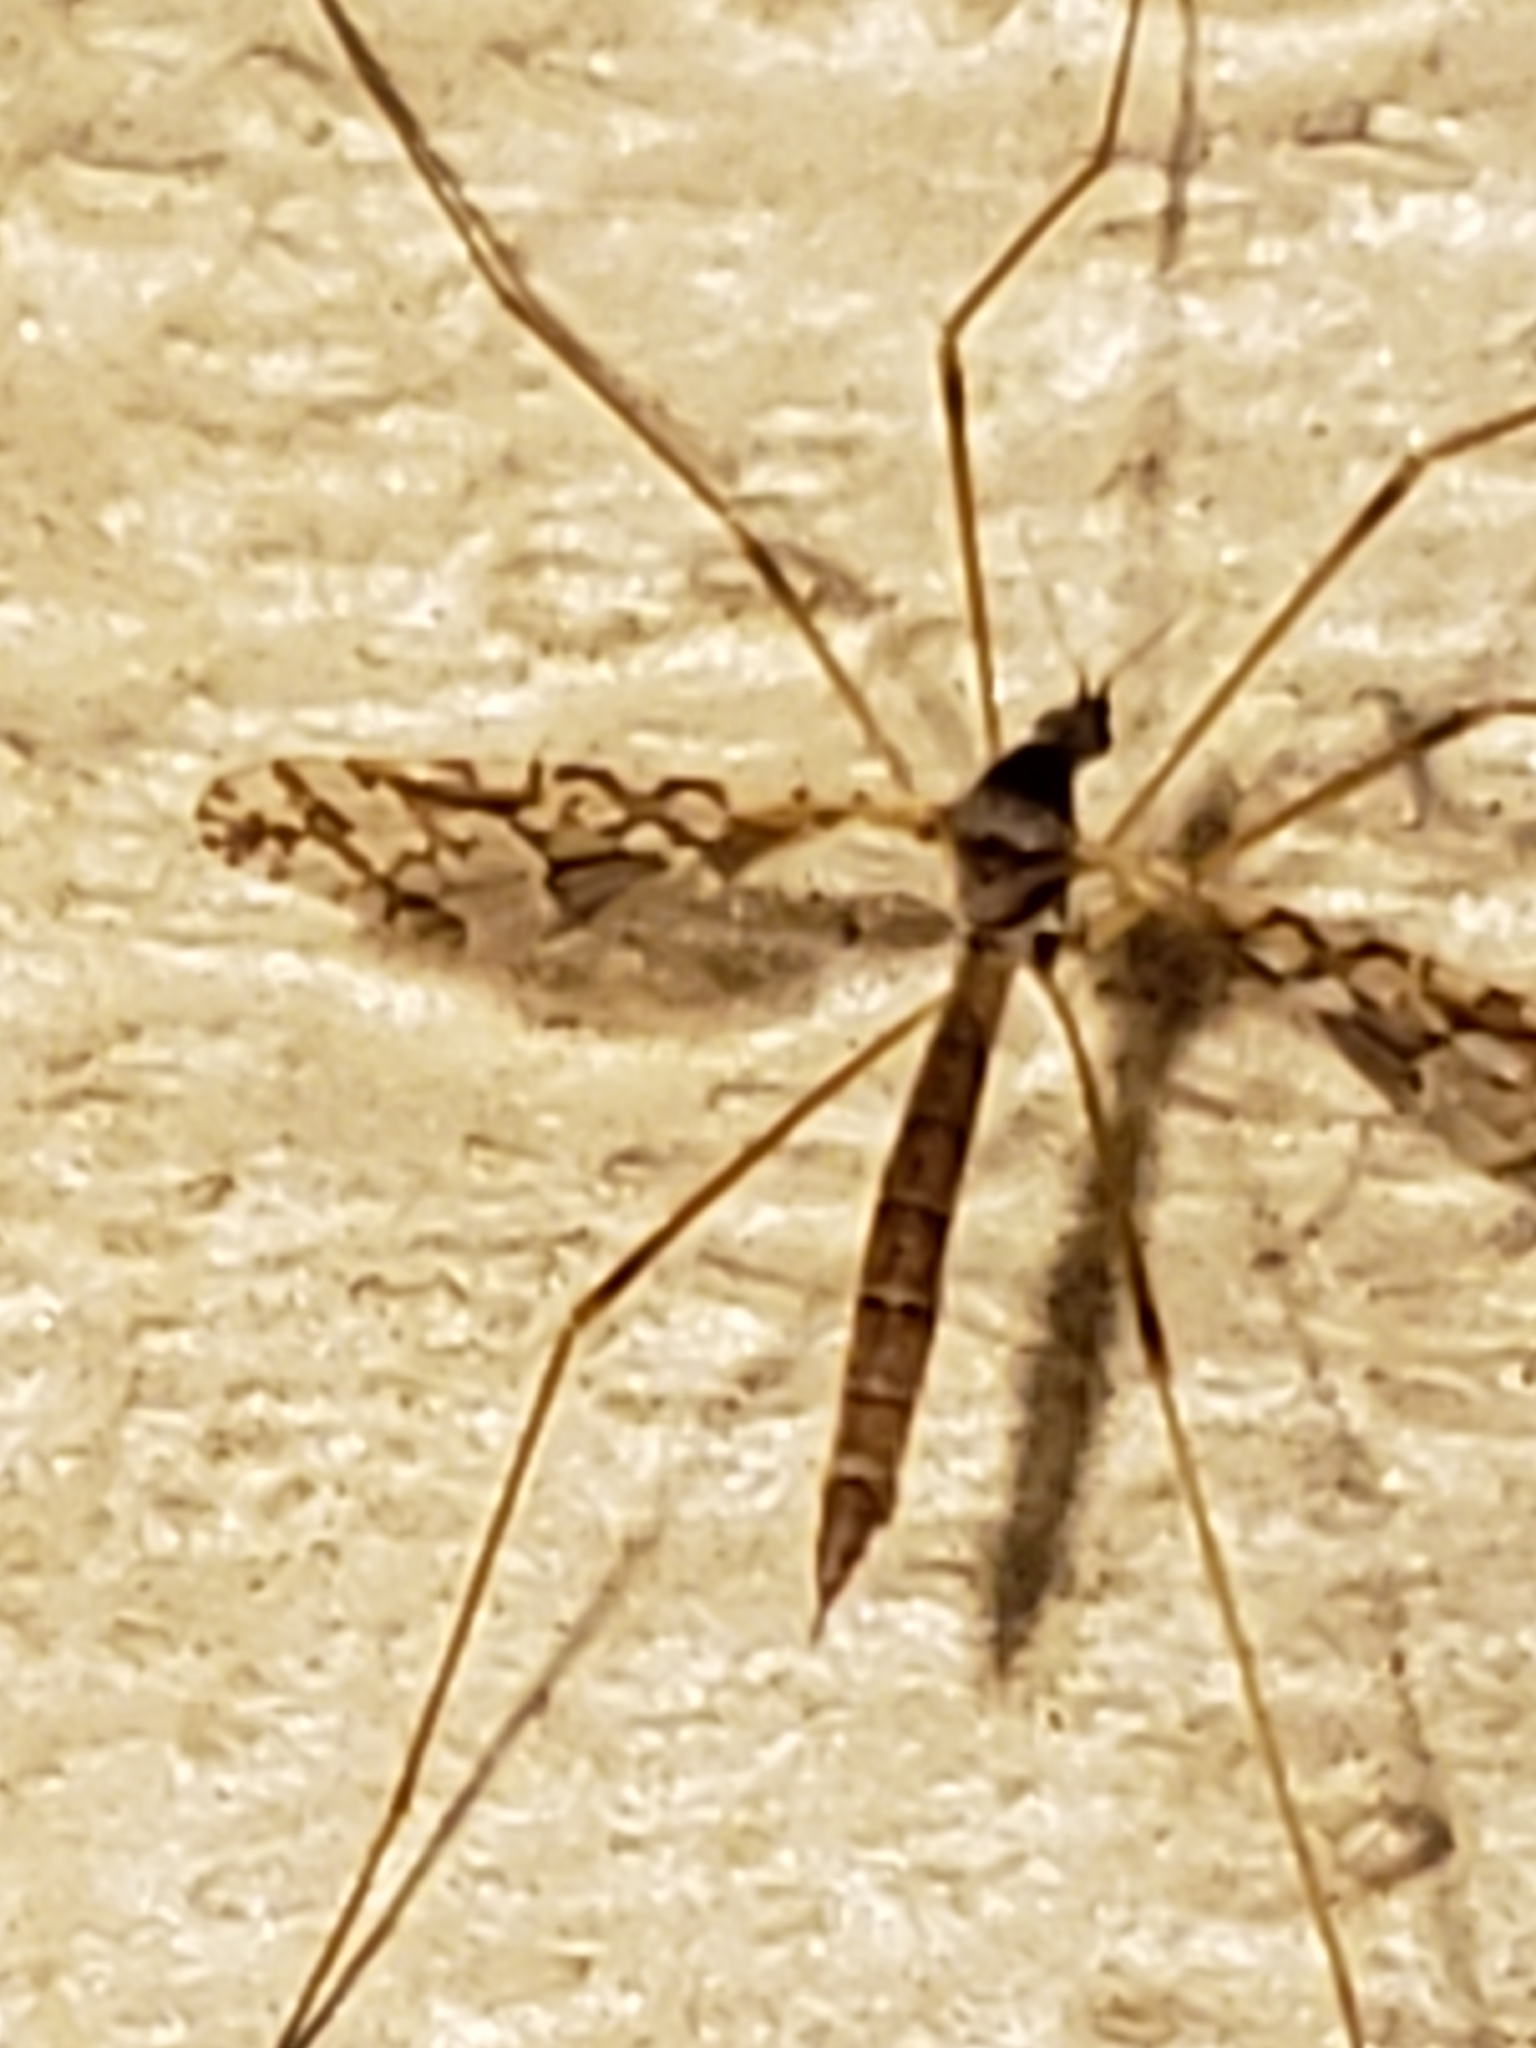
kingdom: Animalia
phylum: Arthropoda
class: Insecta
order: Diptera
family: Limoniidae
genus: Epiphragma
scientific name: Epiphragma solatrix
